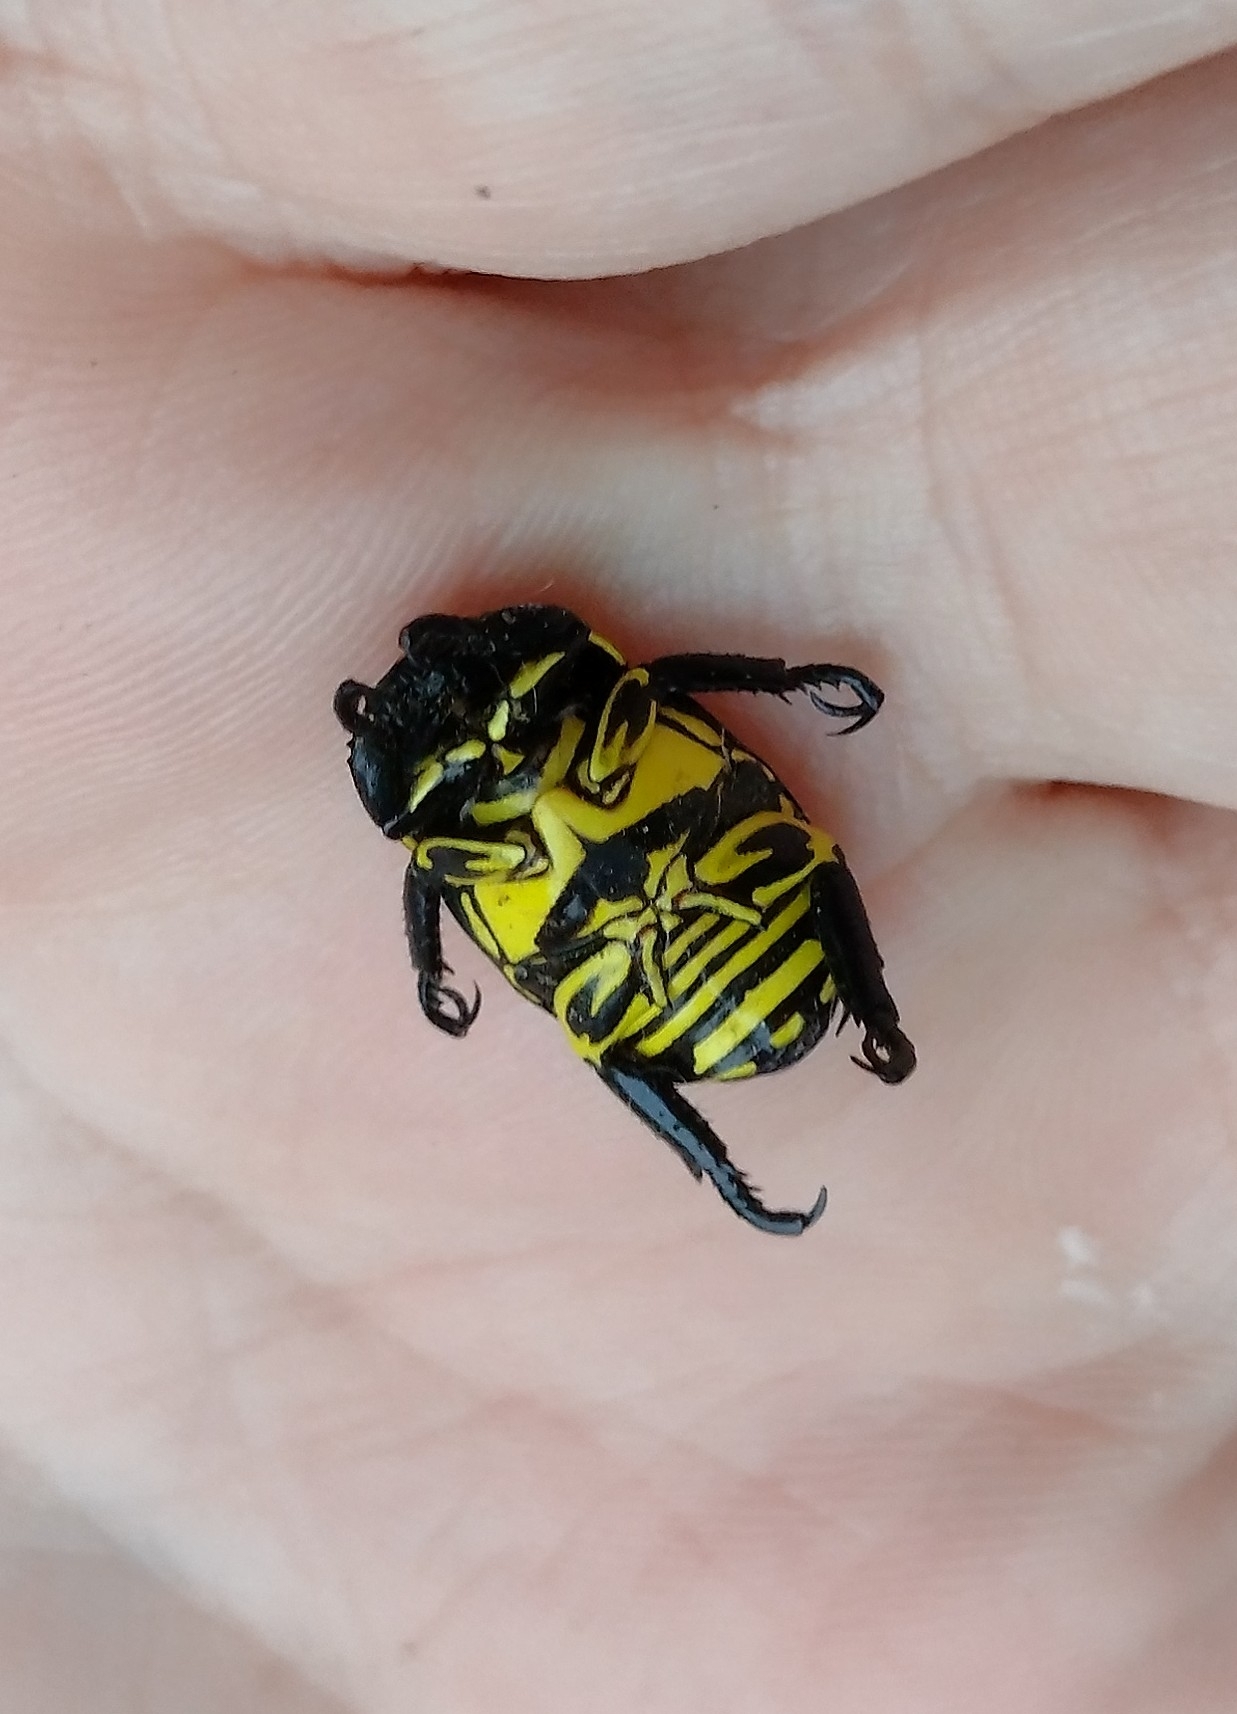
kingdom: Animalia
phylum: Arthropoda
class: Insecta
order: Coleoptera
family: Scarabaeidae
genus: Rutela
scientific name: Rutela lineola
